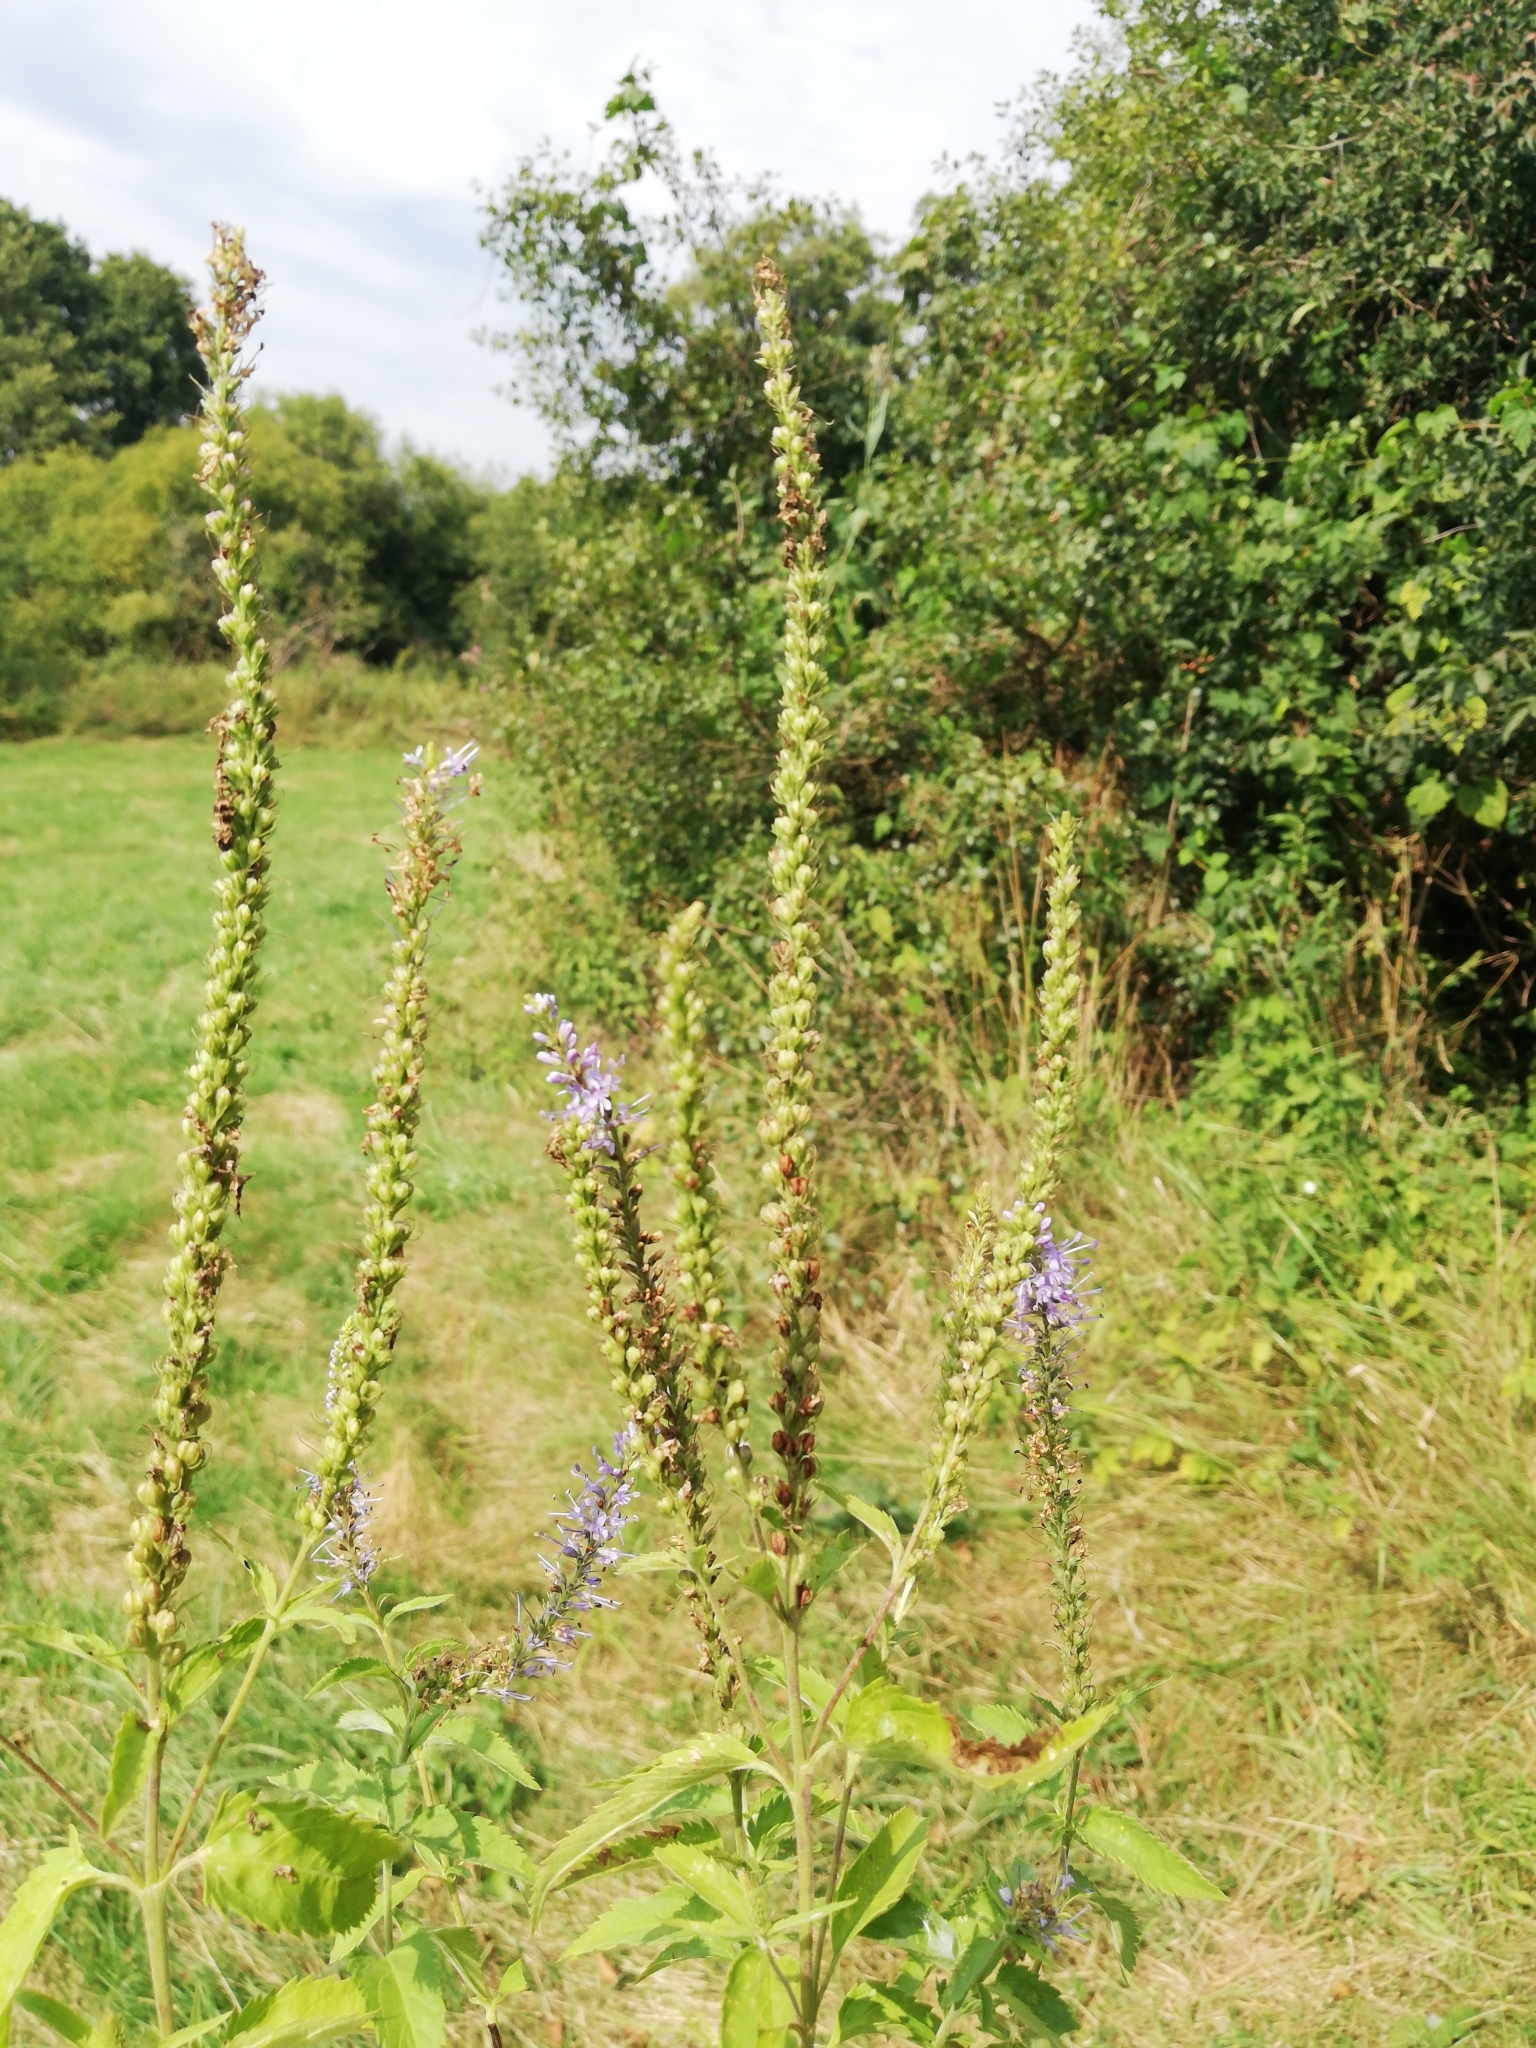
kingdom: Plantae
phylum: Tracheophyta
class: Magnoliopsida
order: Lamiales
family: Plantaginaceae
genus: Veronica
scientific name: Veronica longifolia
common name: Garden speedwell
